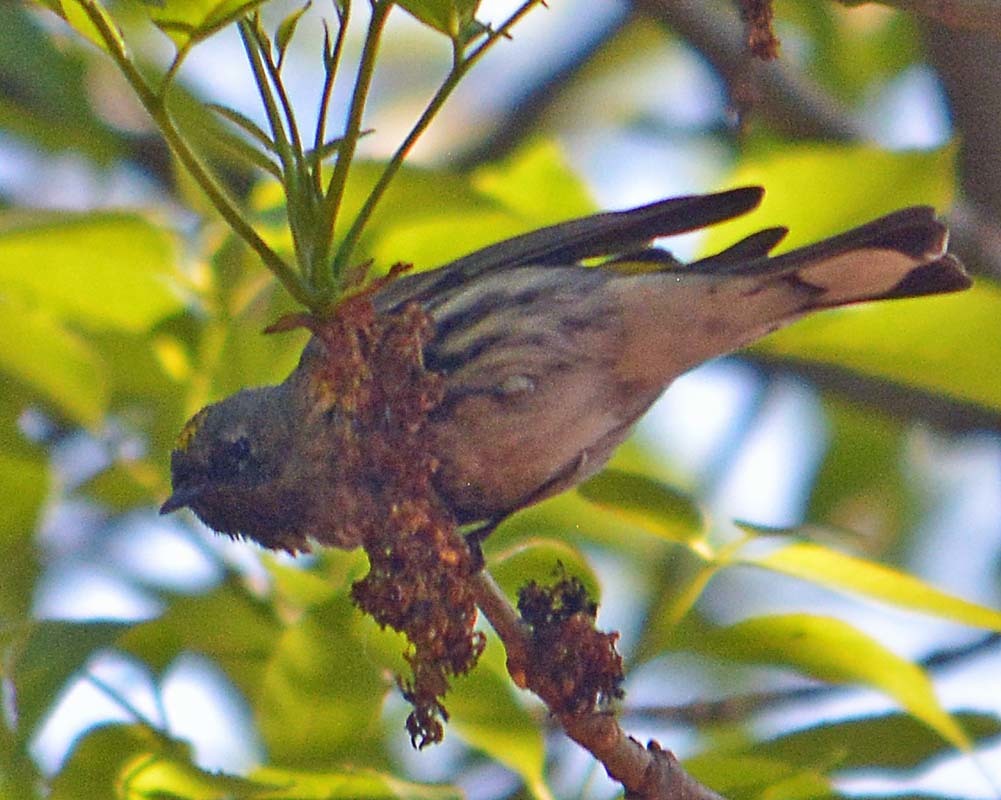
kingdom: Animalia
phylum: Chordata
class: Aves
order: Passeriformes
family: Parulidae
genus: Setophaga
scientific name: Setophaga coronata
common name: Myrtle warbler
